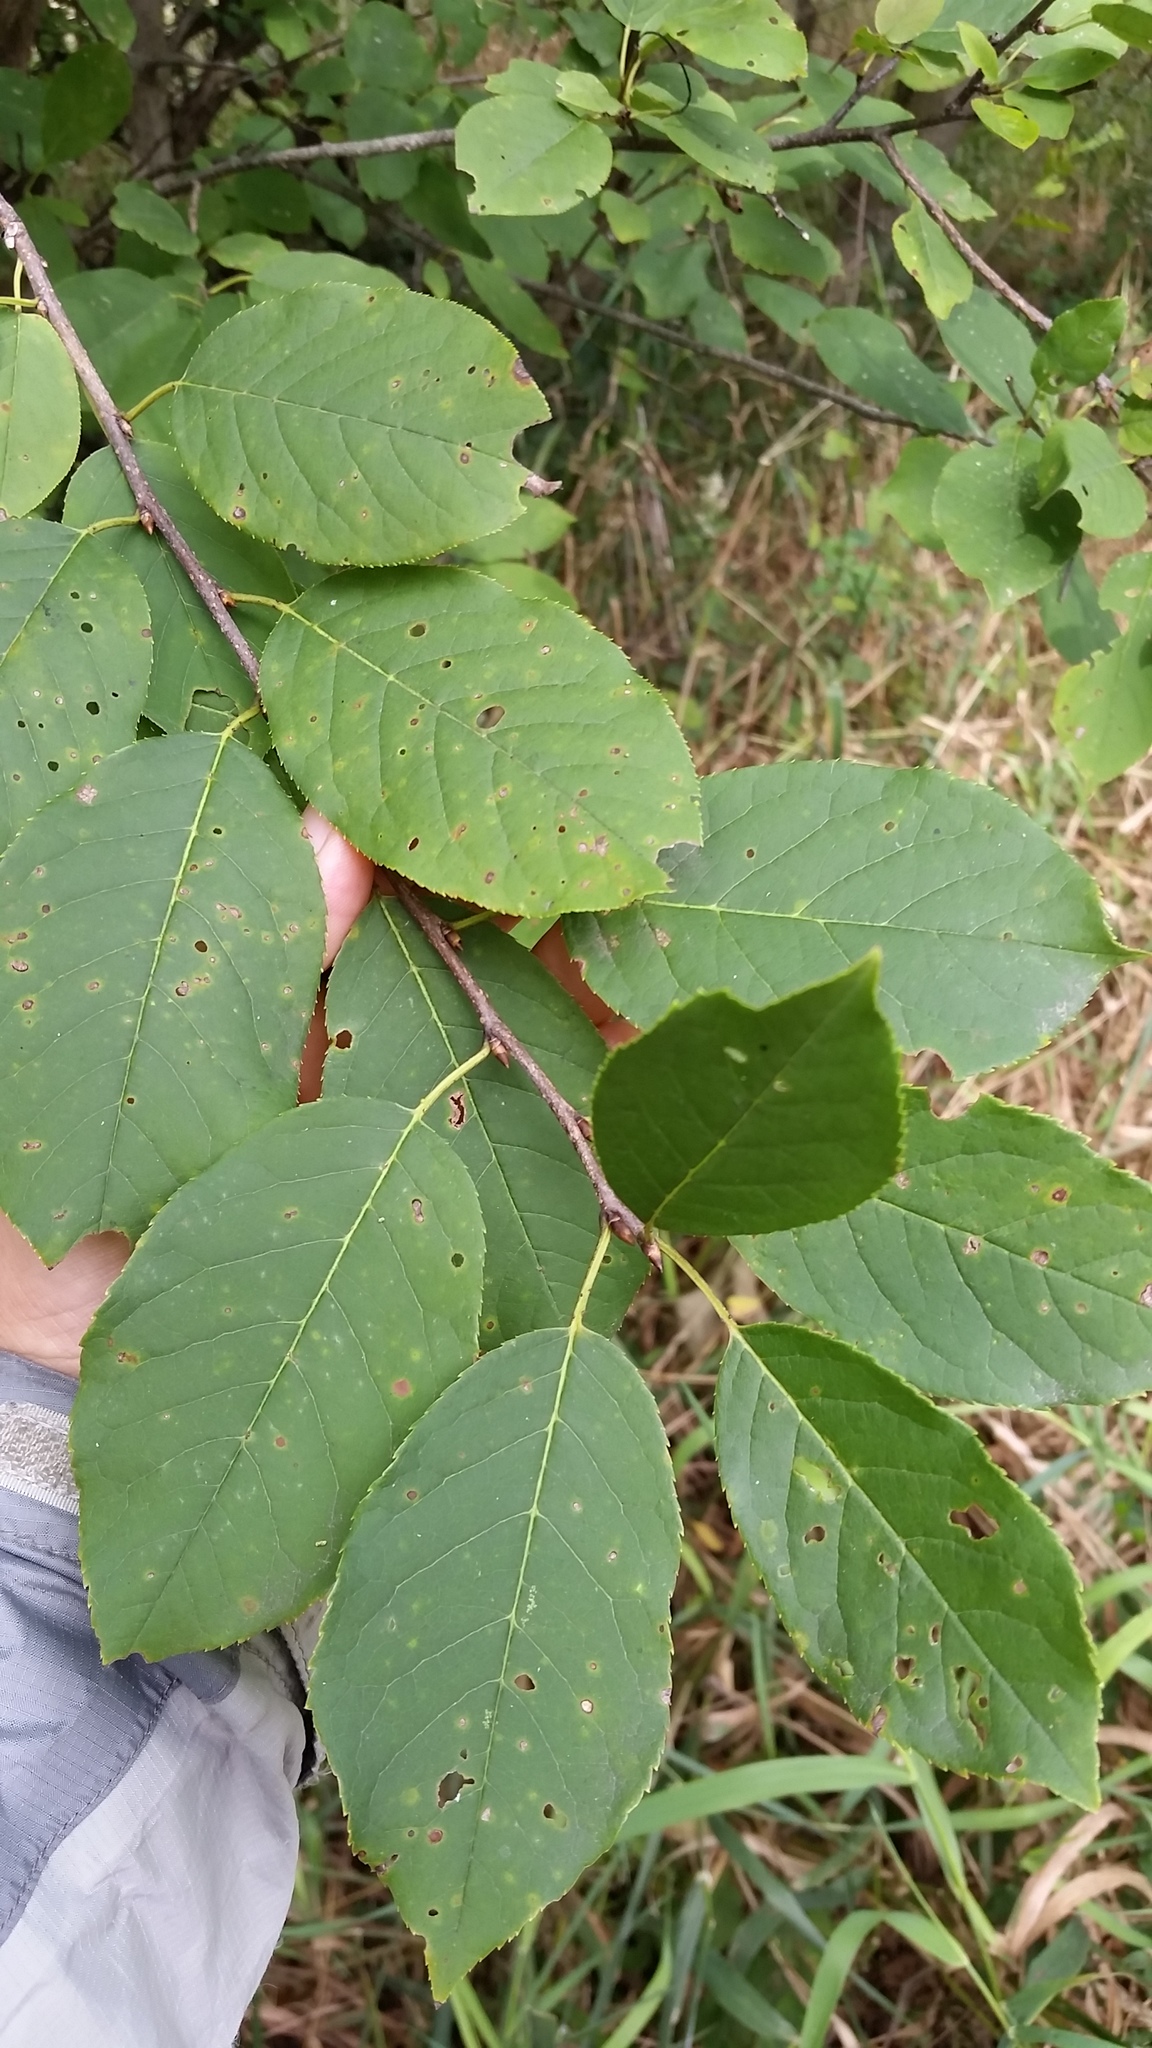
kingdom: Plantae
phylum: Tracheophyta
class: Magnoliopsida
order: Rosales
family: Rosaceae
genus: Prunus
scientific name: Prunus virginiana
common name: Chokecherry
